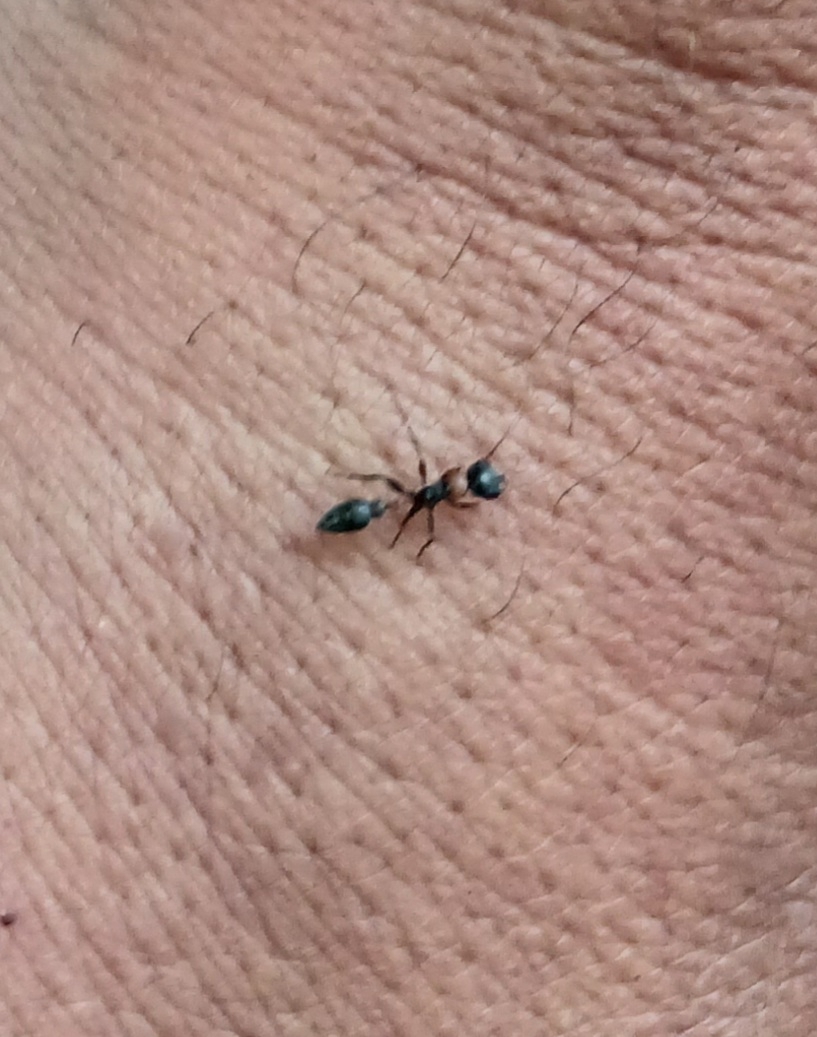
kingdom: Animalia
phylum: Arthropoda
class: Insecta
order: Hymenoptera
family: Formicidae
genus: Pseudomyrmex
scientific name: Pseudomyrmex gracilis
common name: Graceful twig ant
